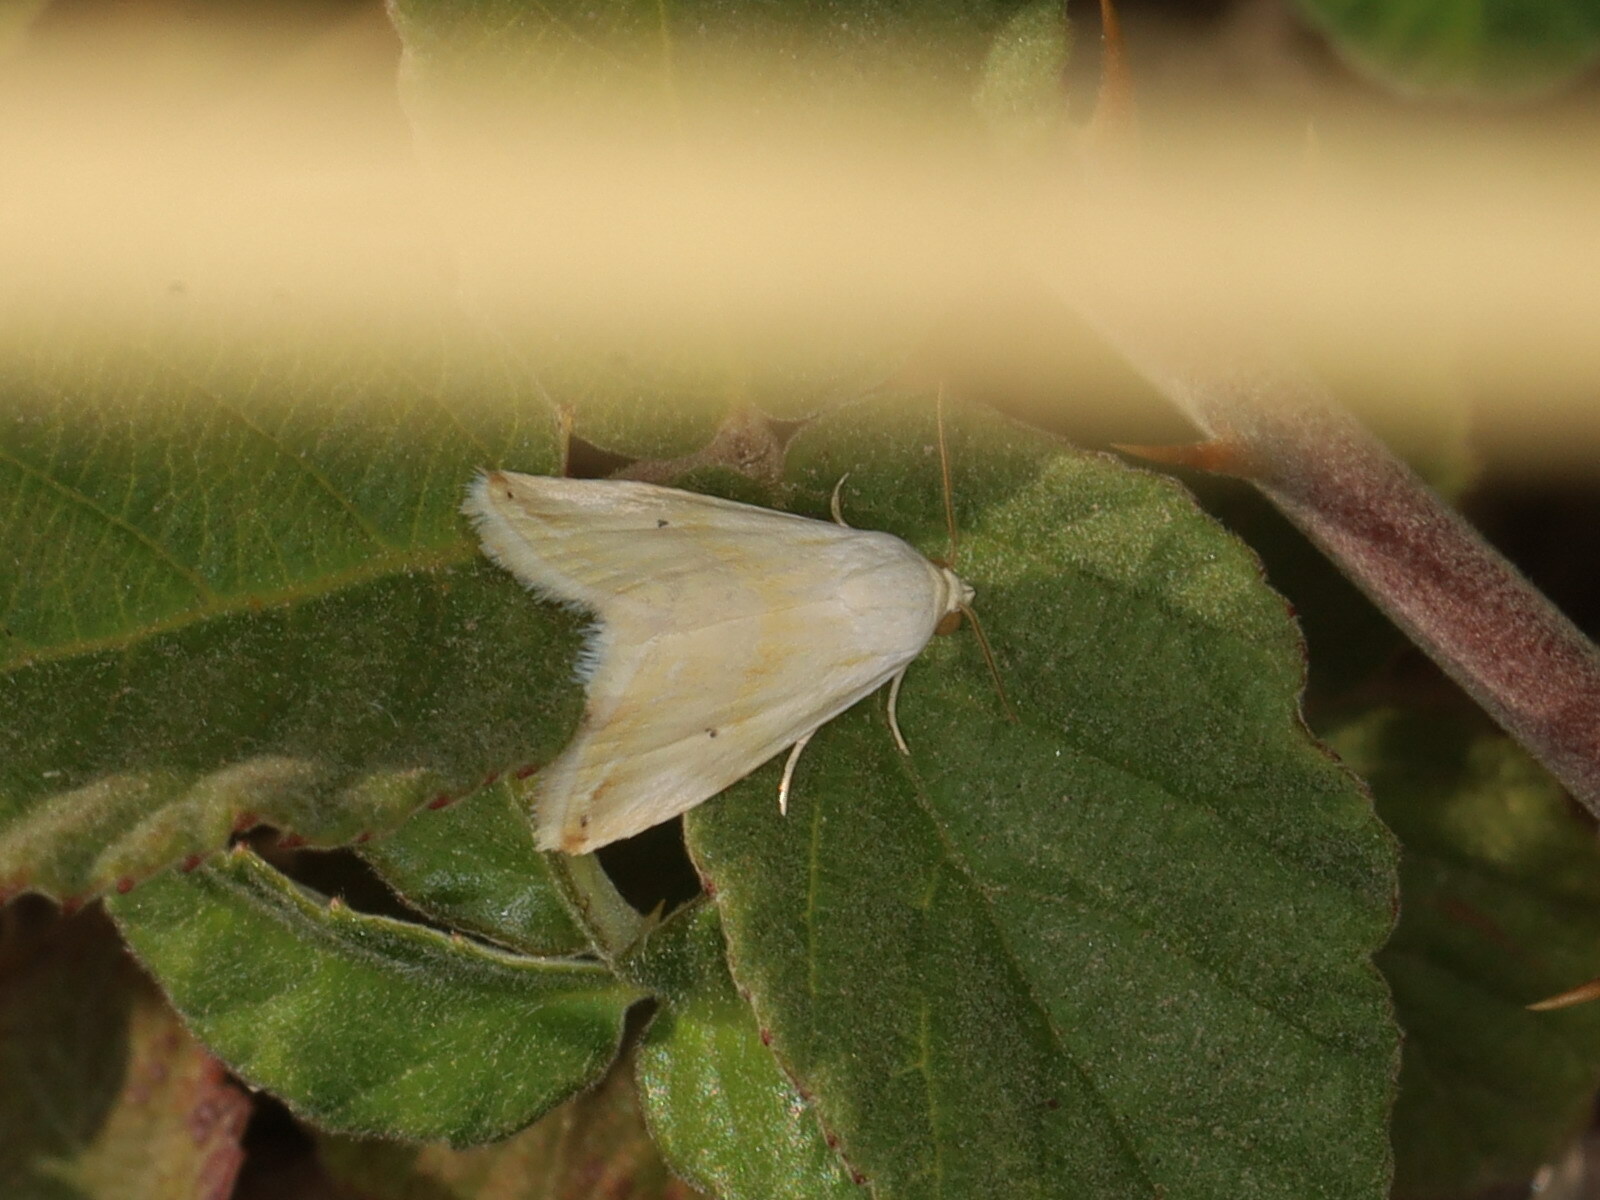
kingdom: Animalia
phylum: Arthropoda
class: Insecta
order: Lepidoptera
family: Noctuidae
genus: Eublemma
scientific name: Eublemma pura
